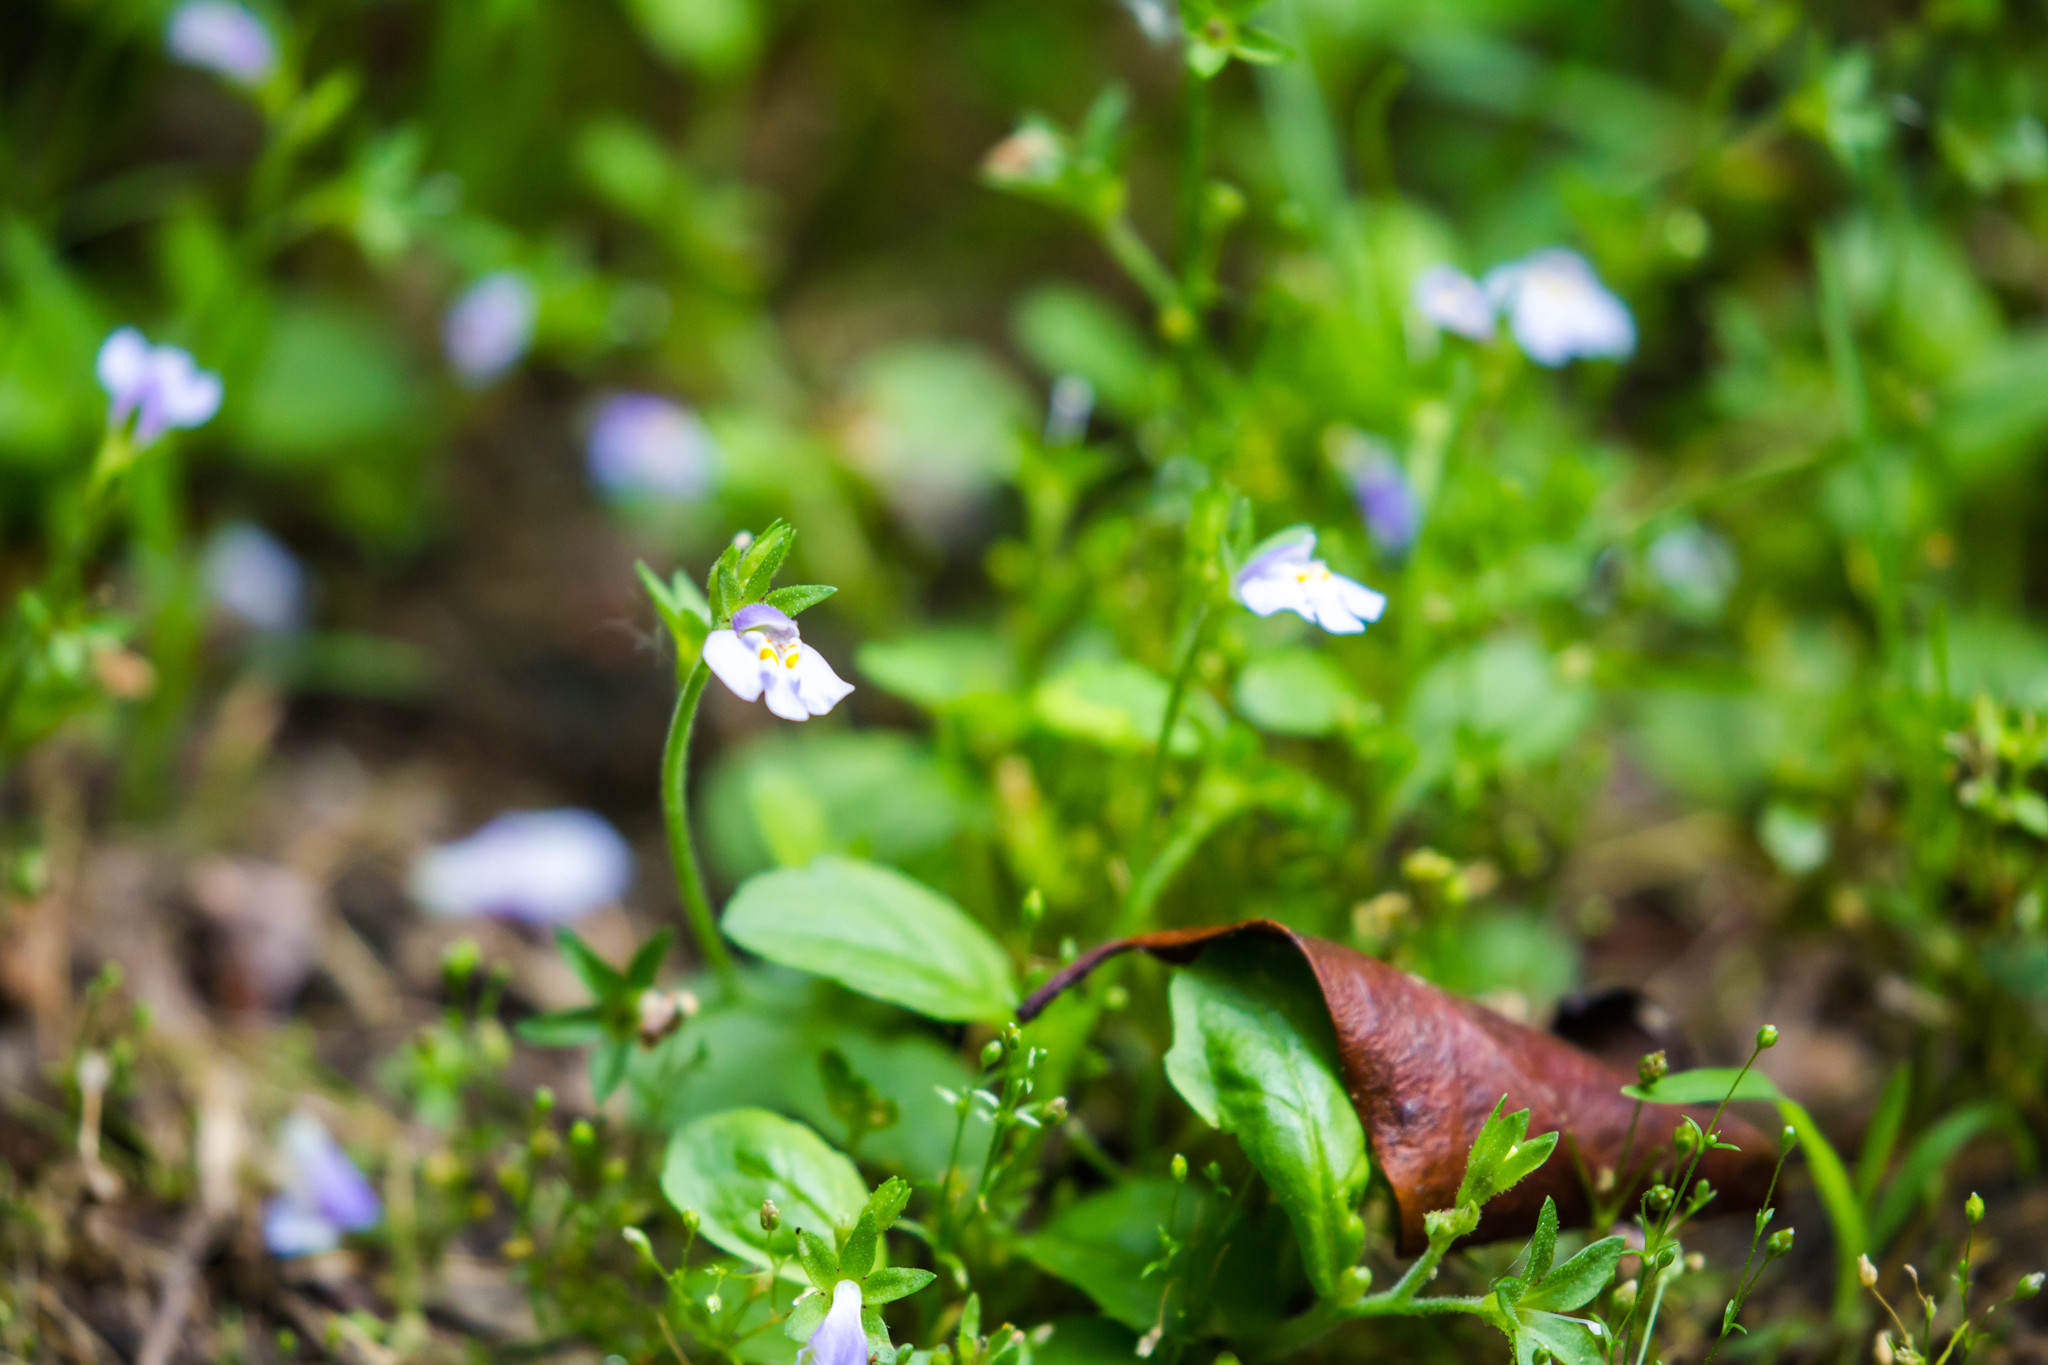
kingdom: Plantae
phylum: Tracheophyta
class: Magnoliopsida
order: Lamiales
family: Mazaceae
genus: Mazus
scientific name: Mazus pumilus
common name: Japanese mazus
